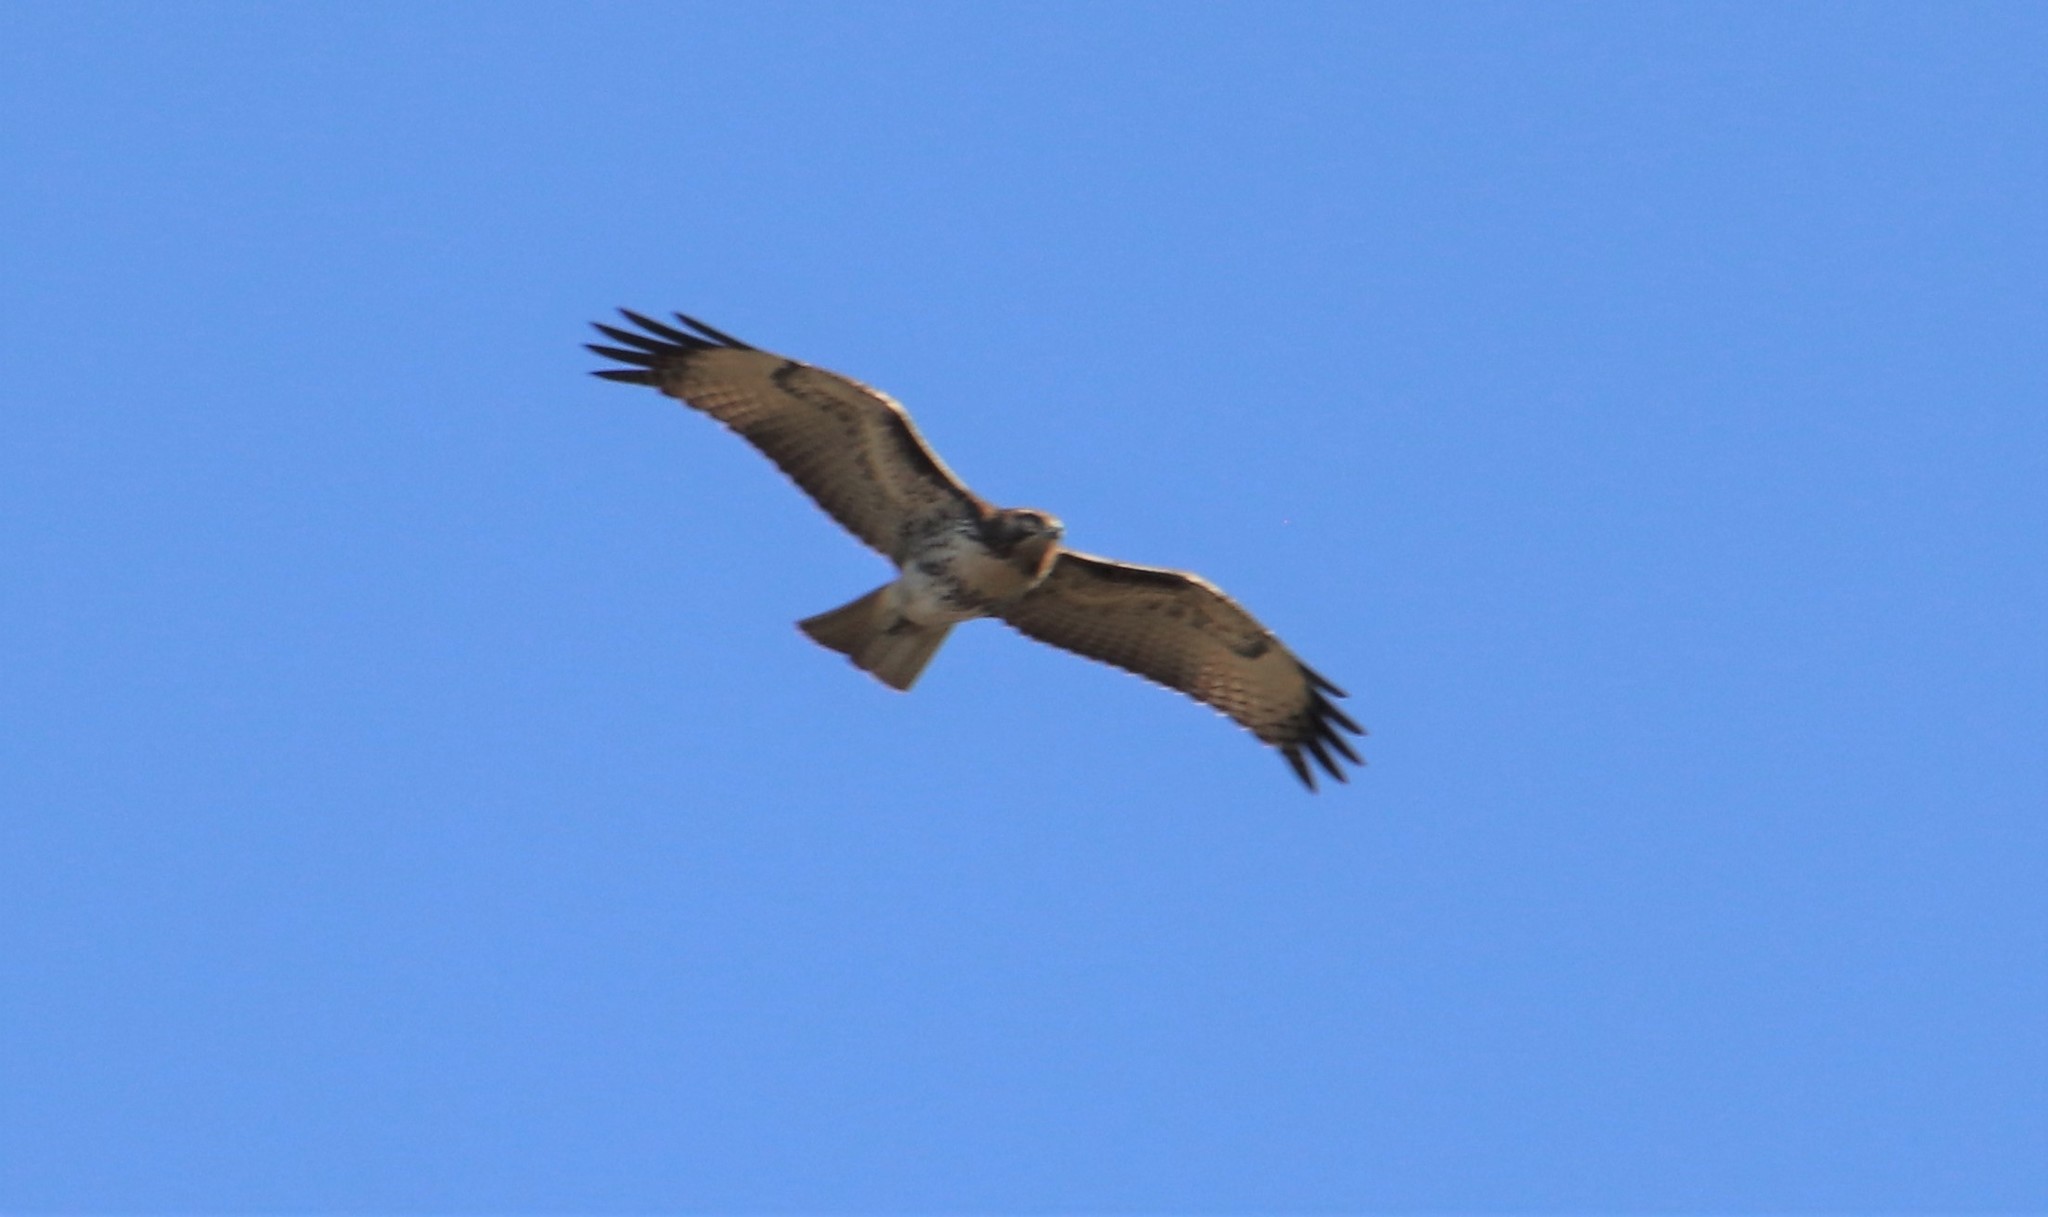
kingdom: Animalia
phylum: Chordata
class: Aves
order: Accipitriformes
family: Accipitridae
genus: Buteo
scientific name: Buteo jamaicensis
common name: Red-tailed hawk
